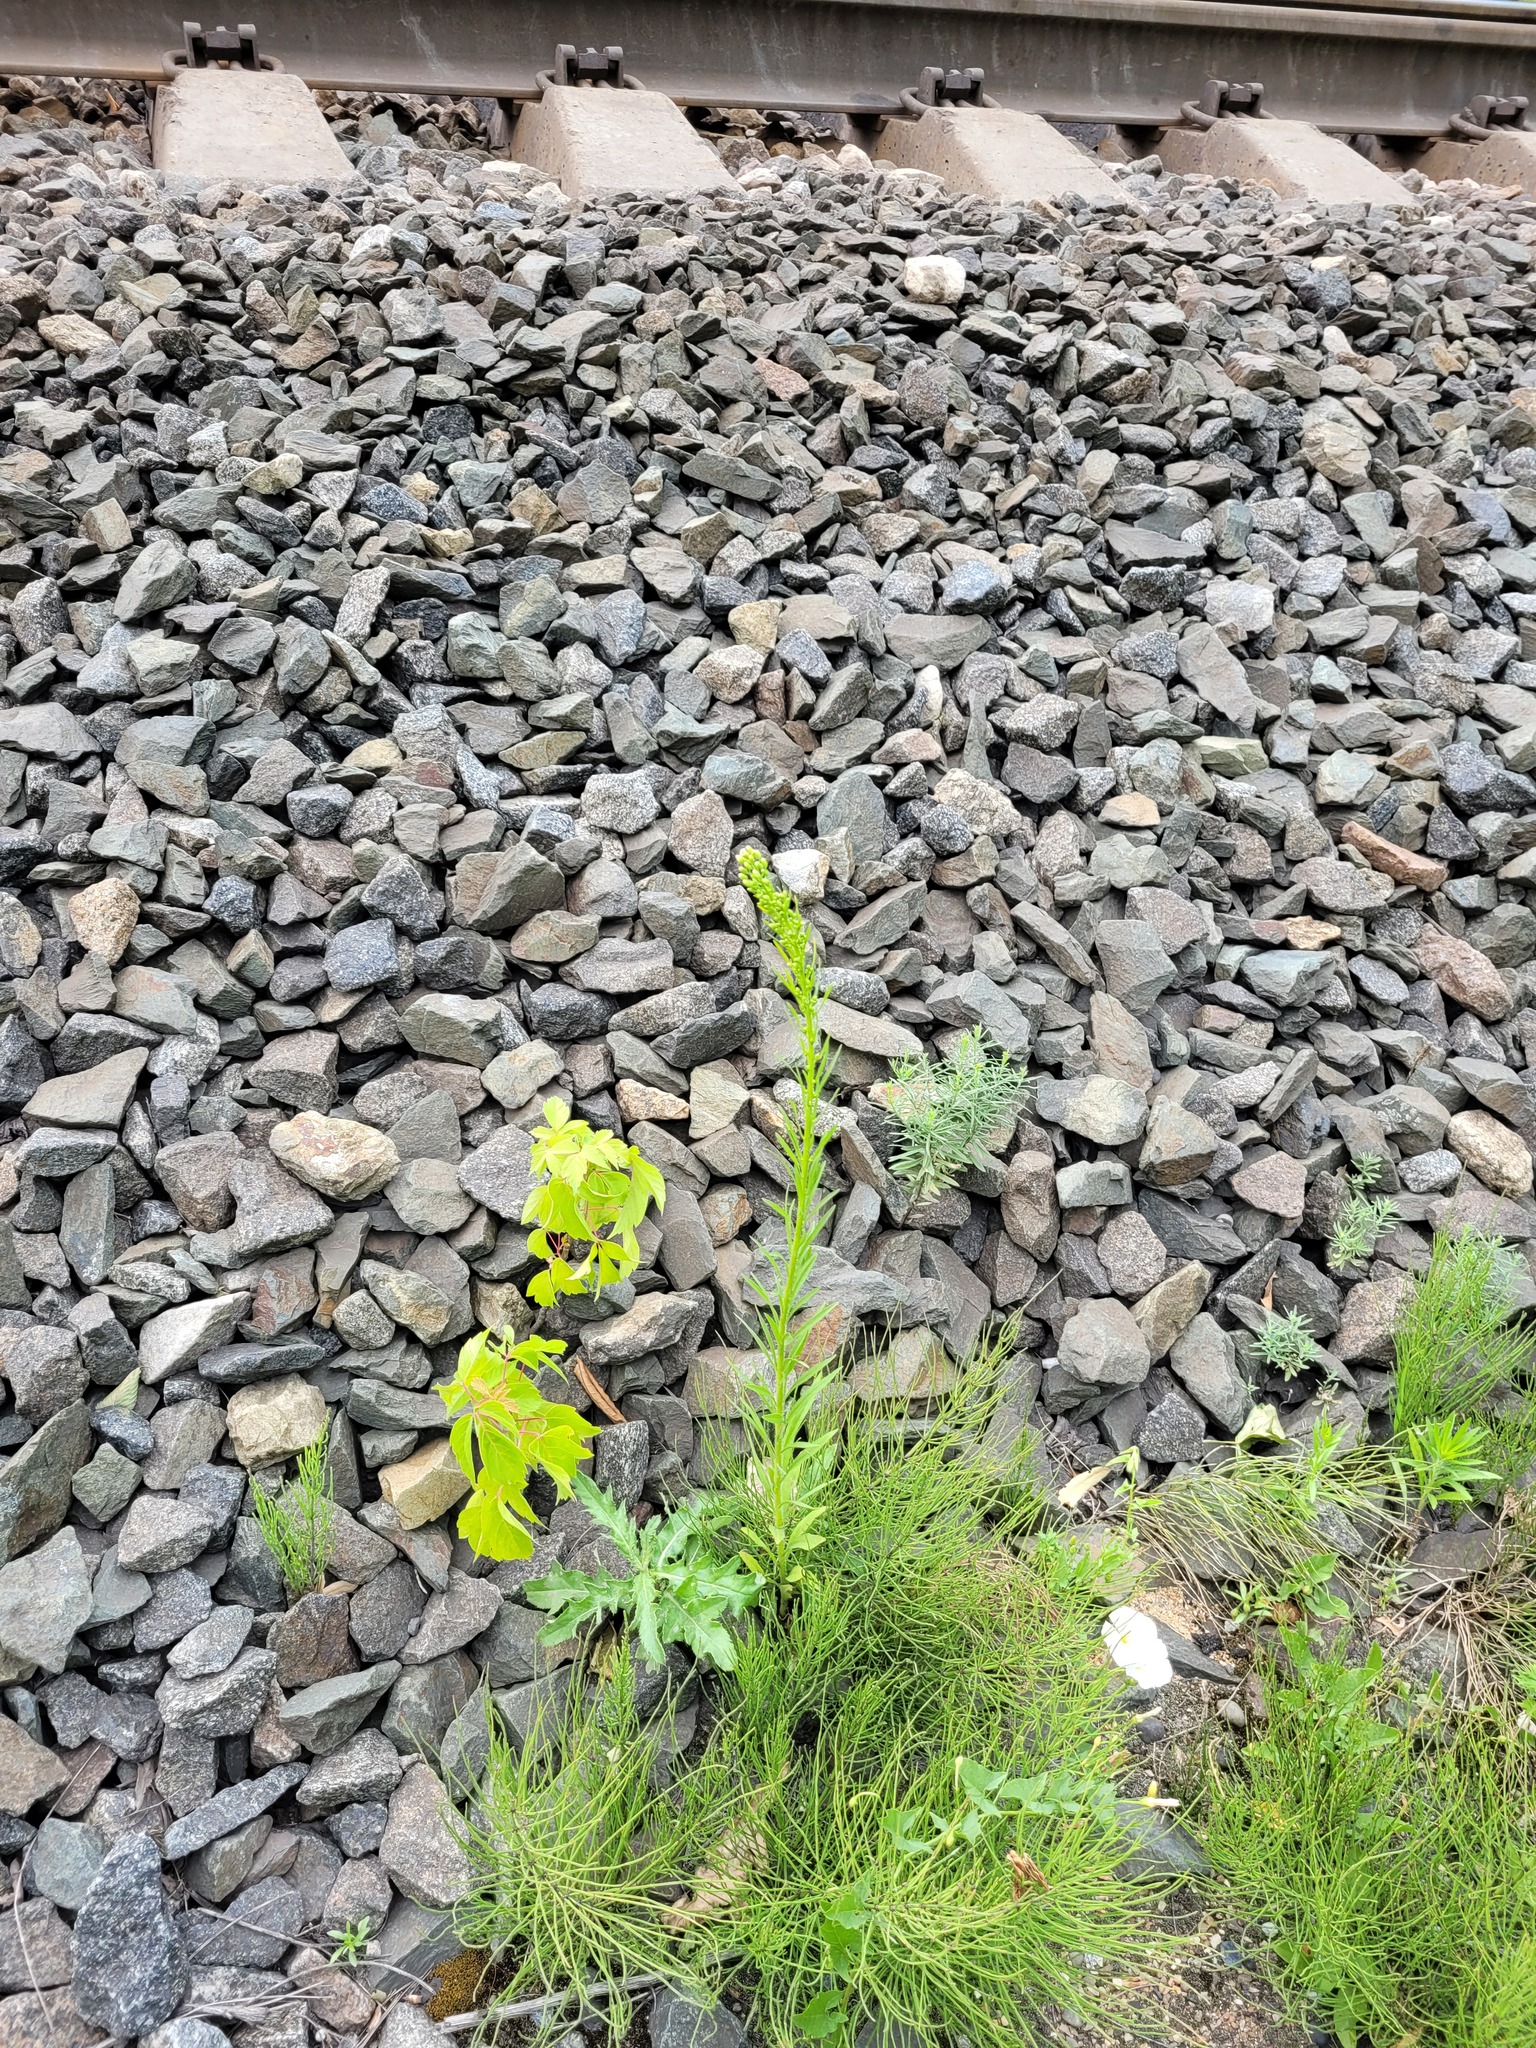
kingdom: Plantae
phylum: Tracheophyta
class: Magnoliopsida
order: Asterales
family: Asteraceae
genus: Erigeron
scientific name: Erigeron canadensis
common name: Canadian fleabane
